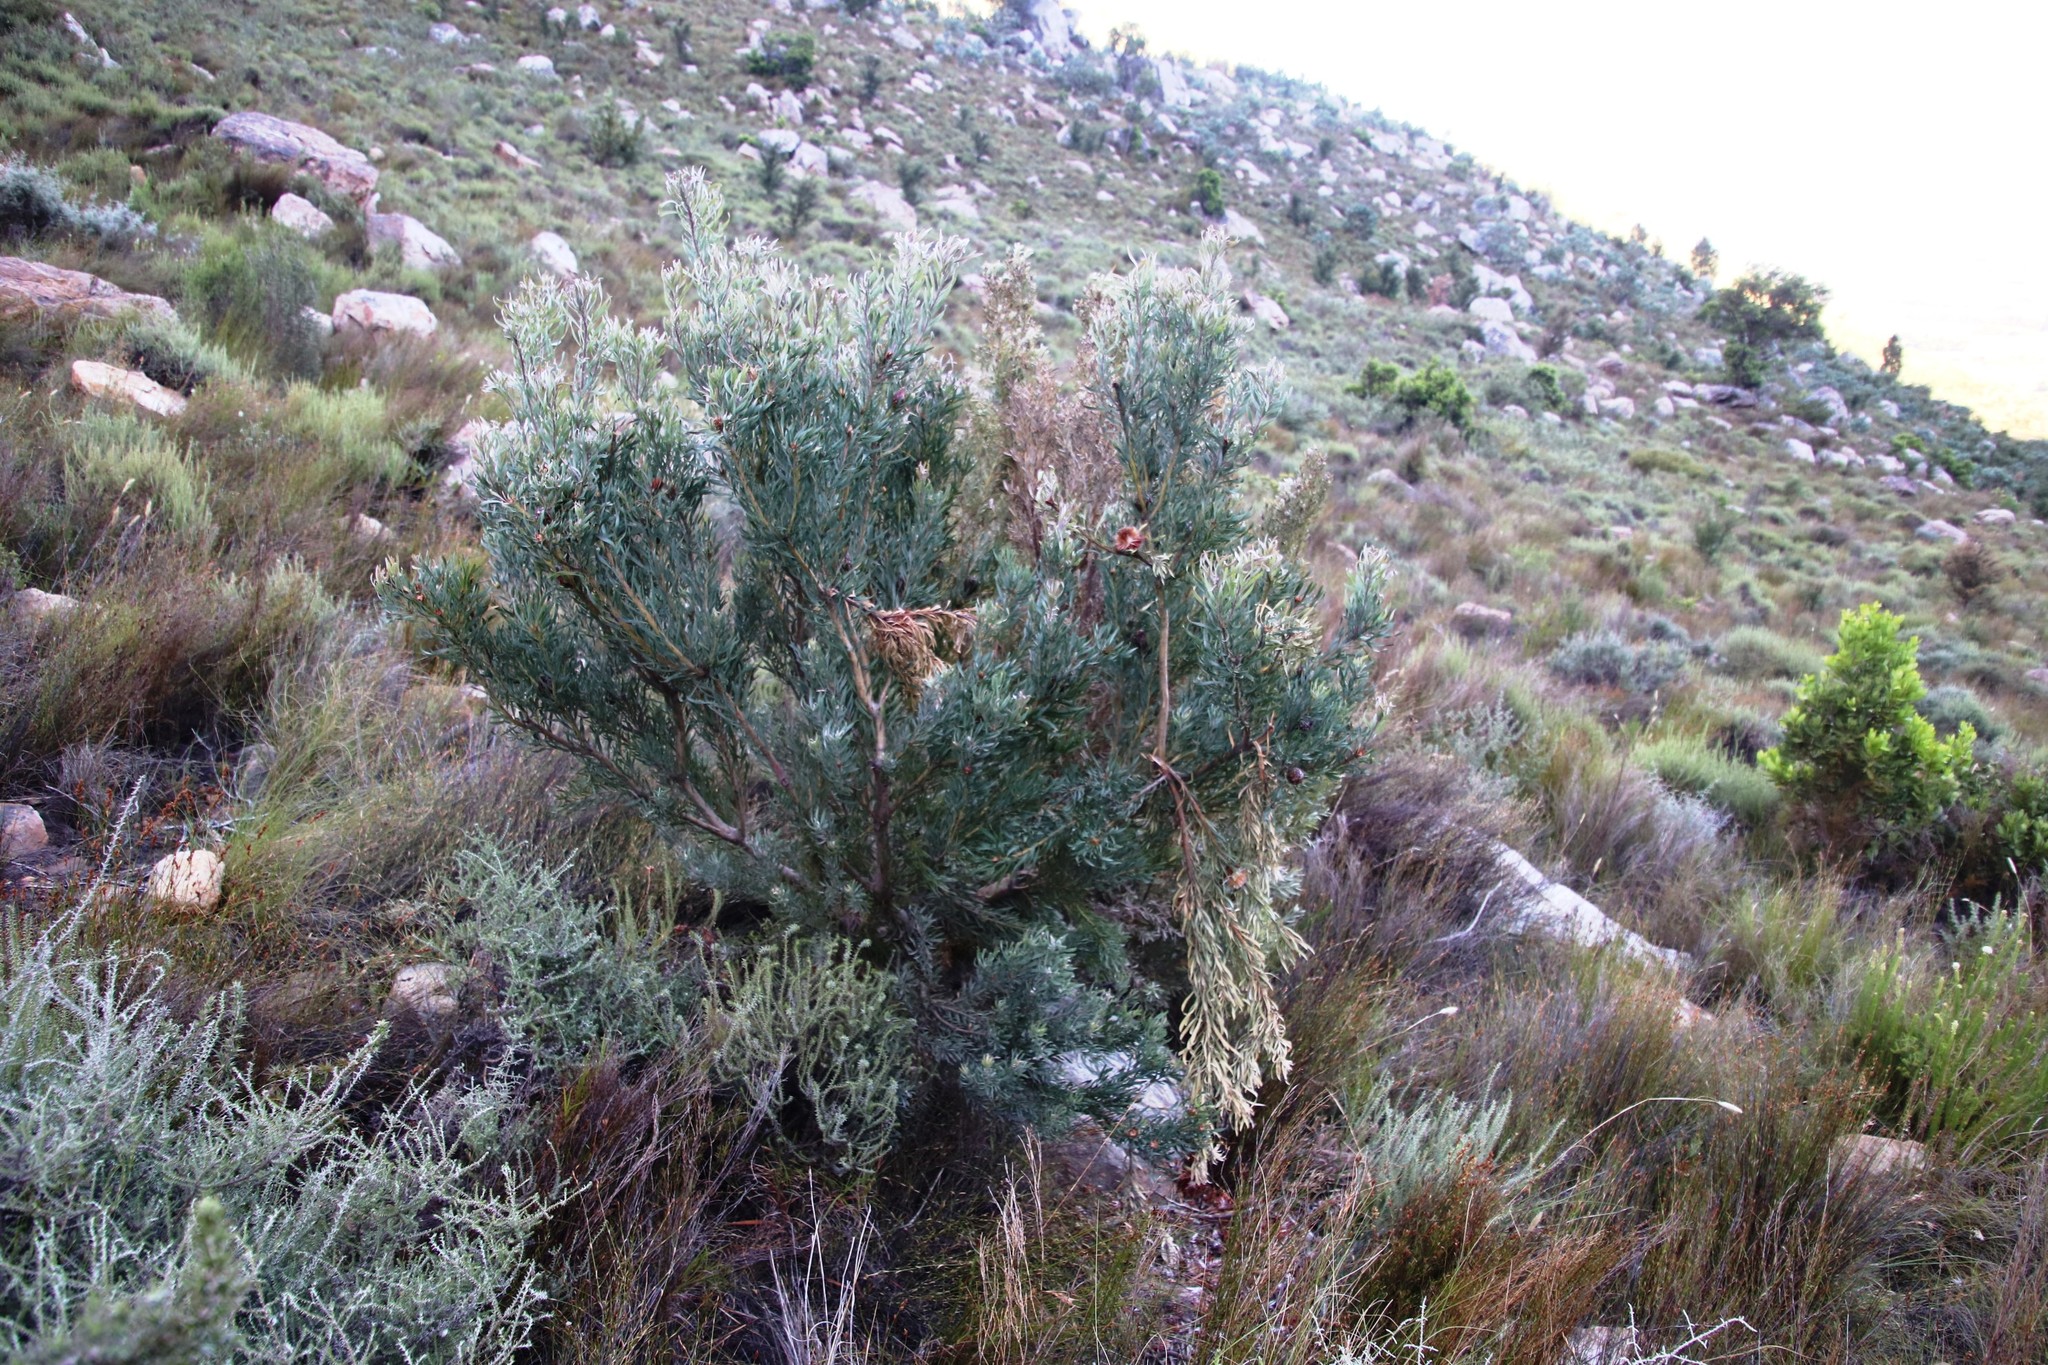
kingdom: Plantae
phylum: Tracheophyta
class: Magnoliopsida
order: Proteales
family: Proteaceae
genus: Leucadendron
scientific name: Leucadendron rubrum
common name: Spinning top
